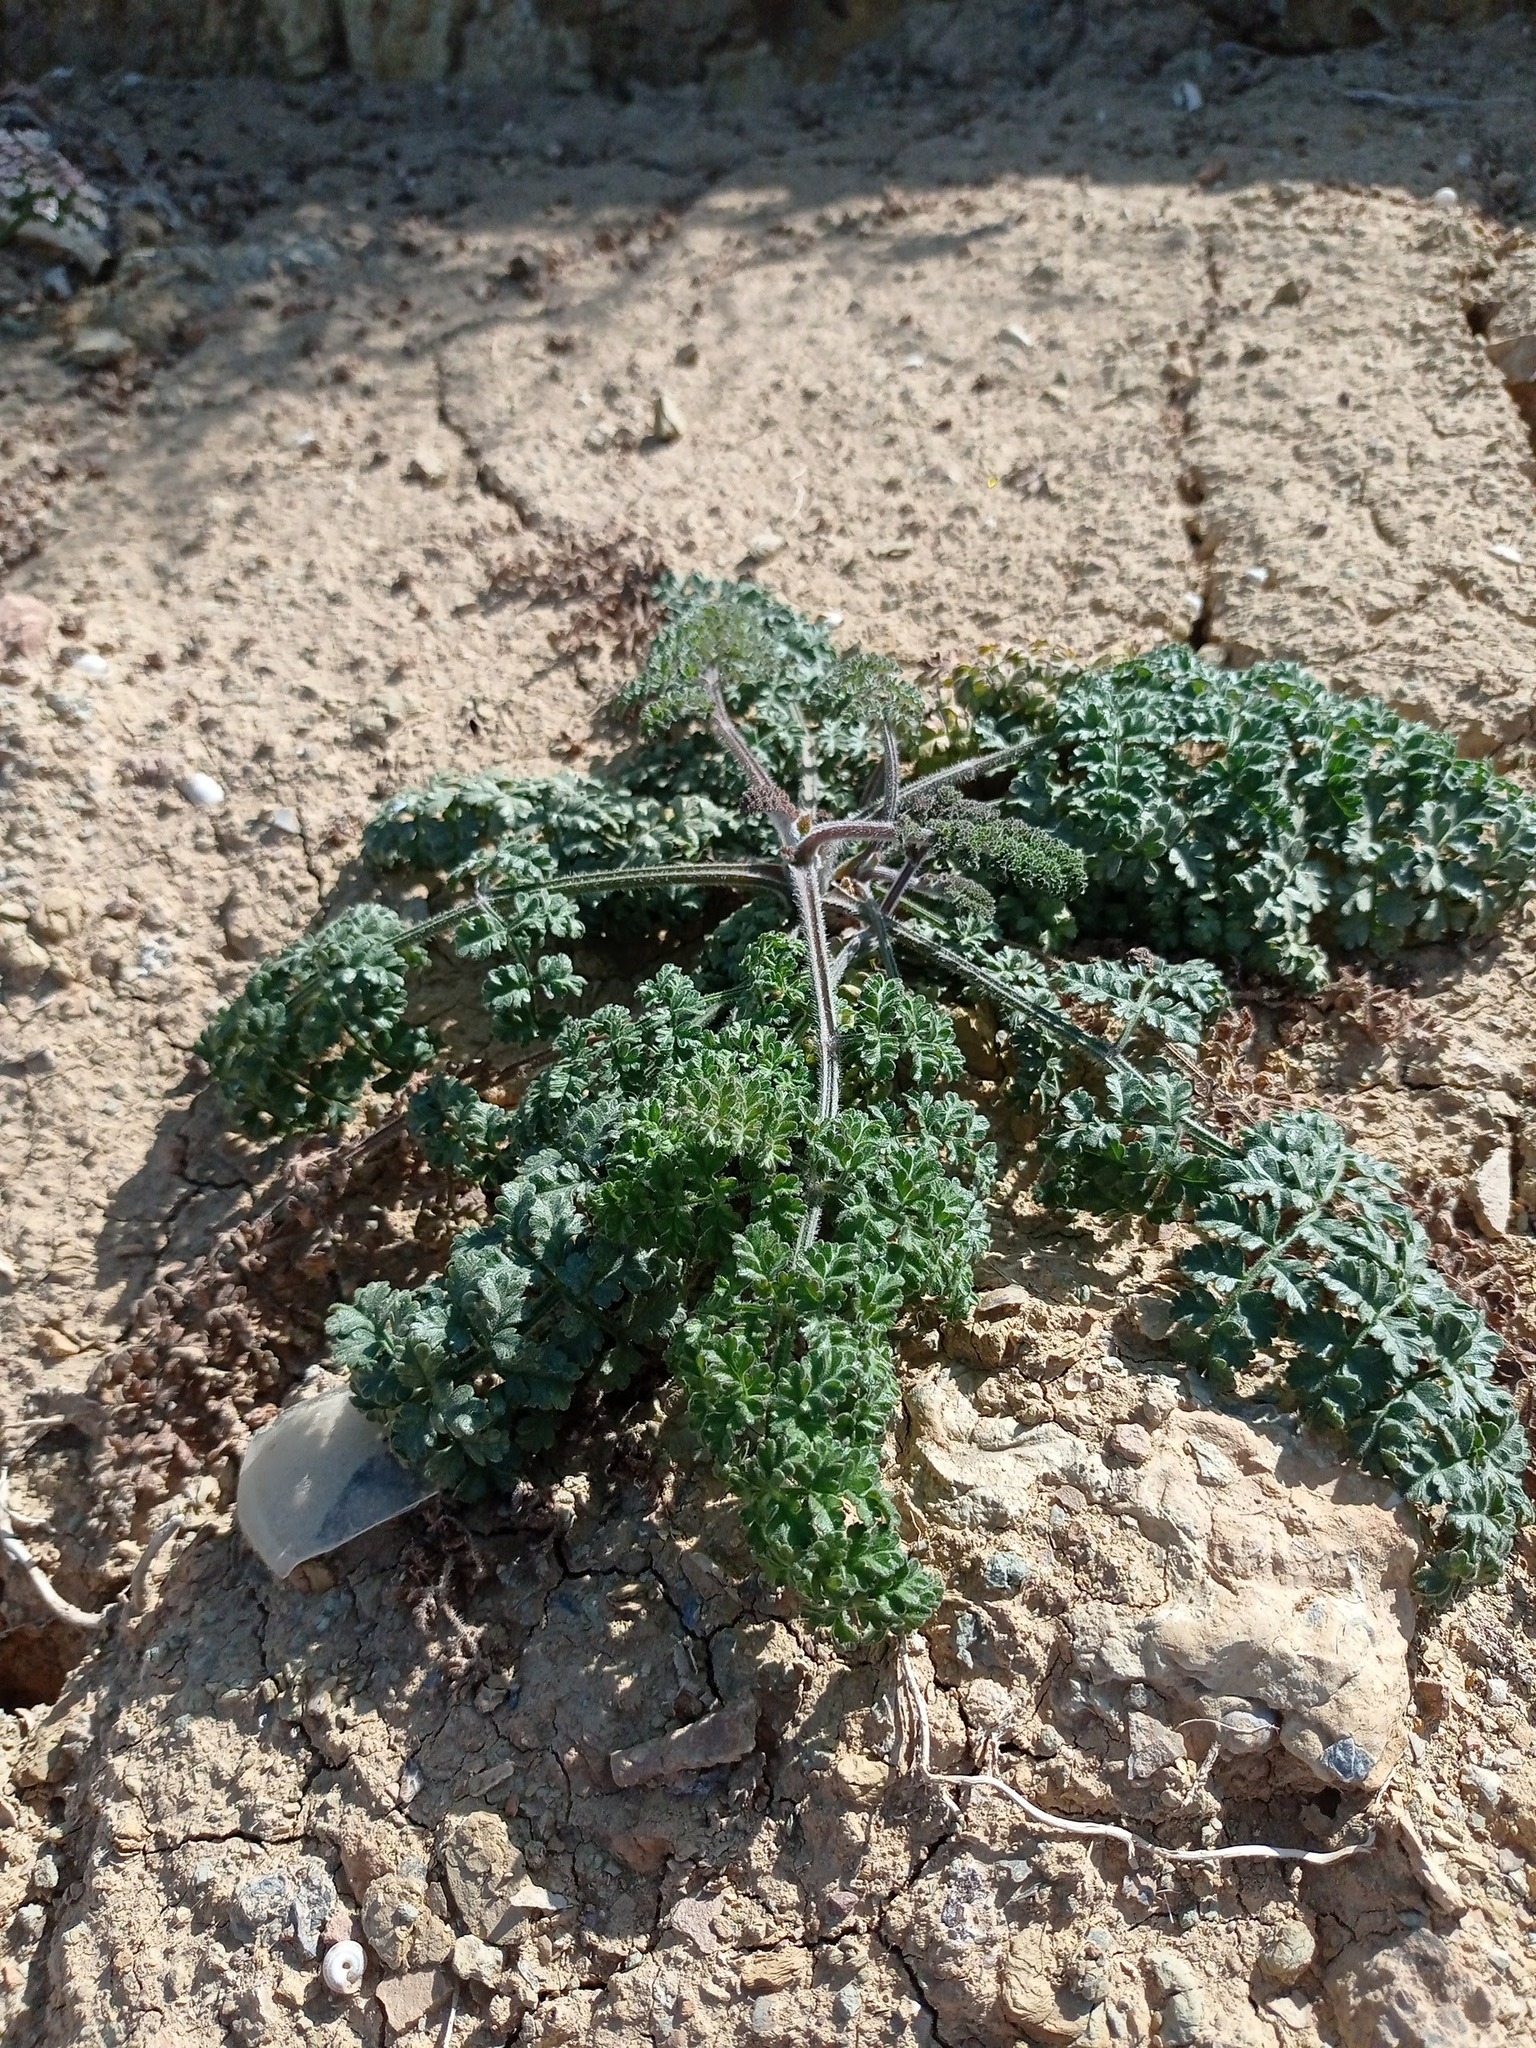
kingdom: Plantae
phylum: Tracheophyta
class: Magnoliopsida
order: Apiales
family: Apiaceae
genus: Daucus
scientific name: Daucus carota
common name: Wild carrot
